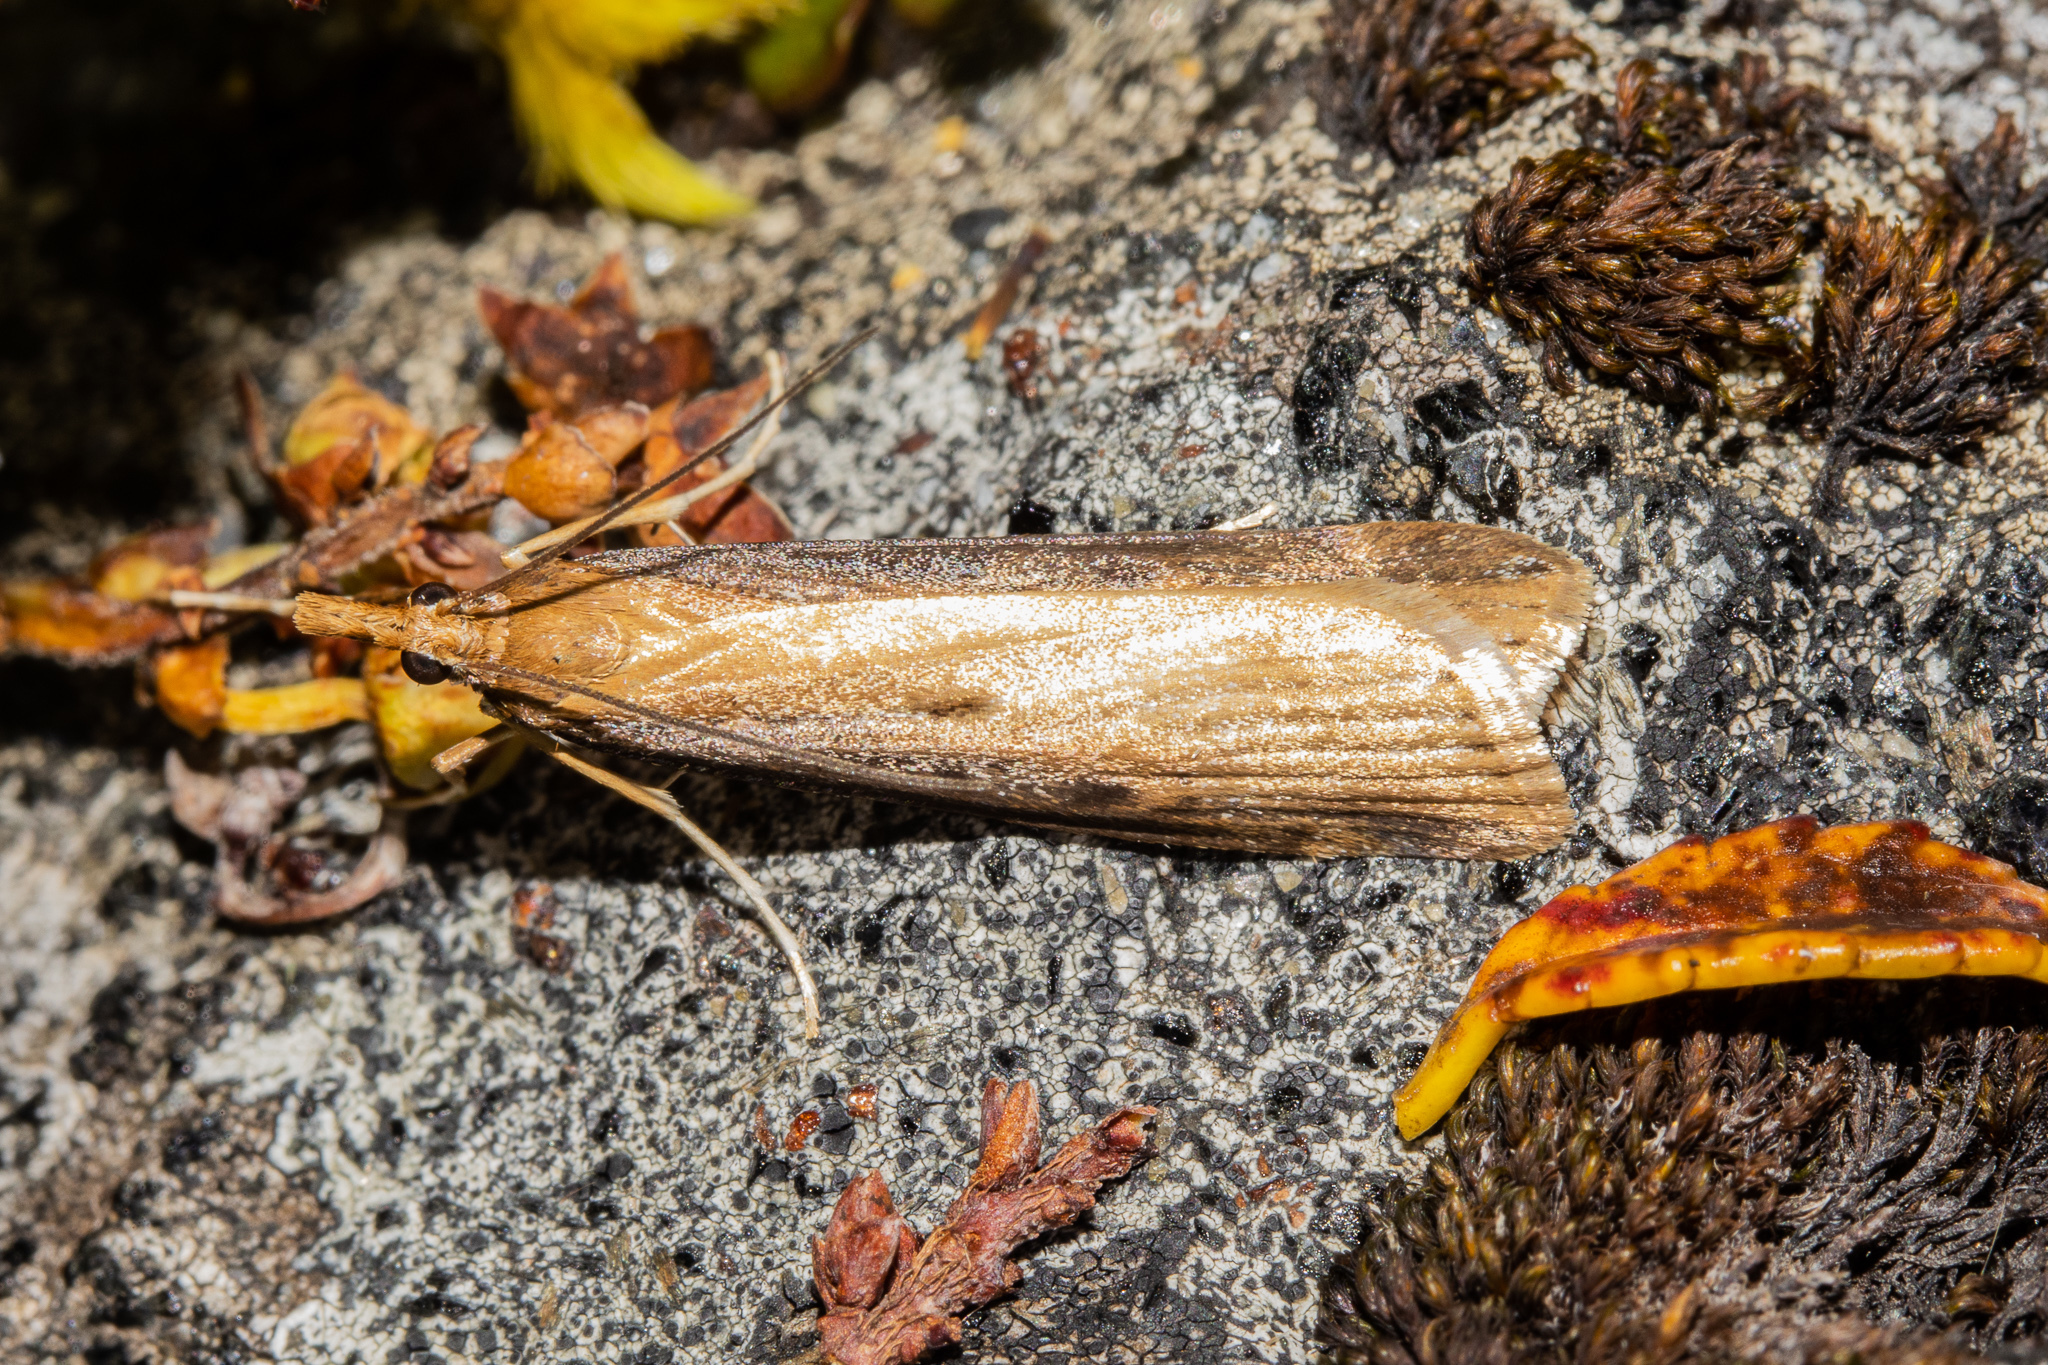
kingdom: Animalia
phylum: Arthropoda
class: Insecta
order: Lepidoptera
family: Crambidae
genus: Scoparia
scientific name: Scoparia augastis
